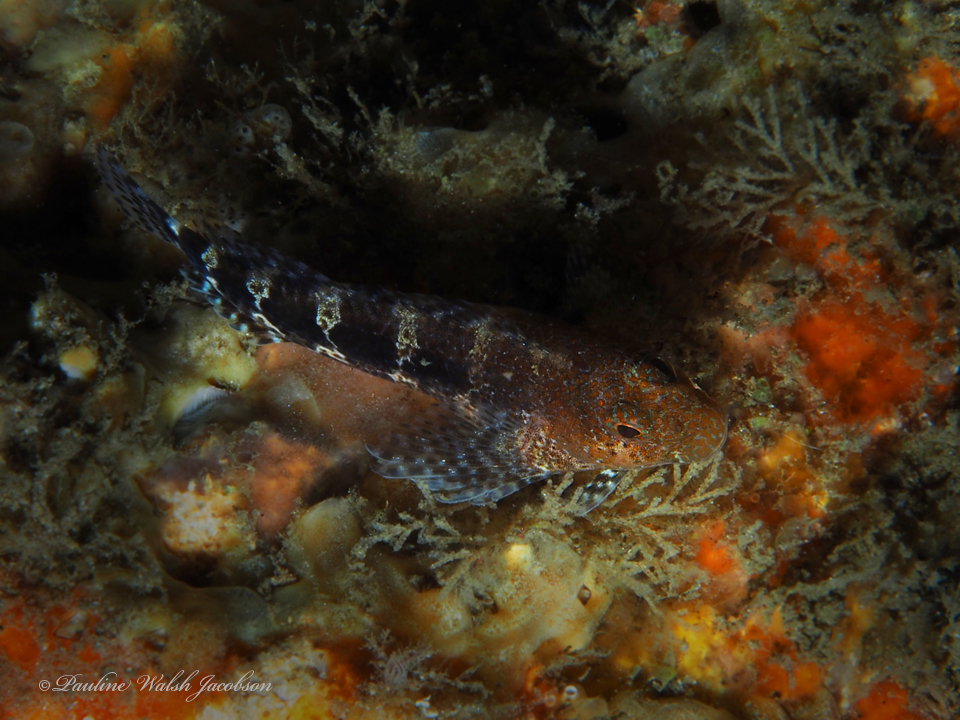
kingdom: Animalia
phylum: Chordata
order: Perciformes
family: Blenniidae
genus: Hypleurochilus
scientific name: Hypleurochilus bermudensis
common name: Barred blenny
